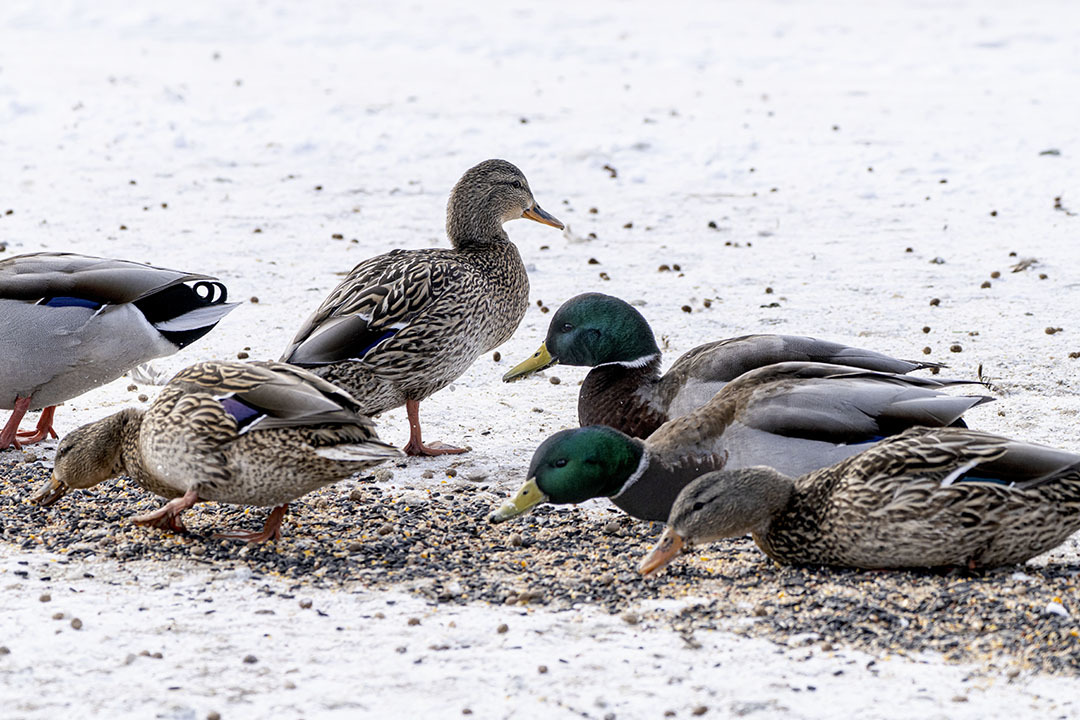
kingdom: Animalia
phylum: Chordata
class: Aves
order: Anseriformes
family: Anatidae
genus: Anas
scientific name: Anas platyrhynchos
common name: Mallard
